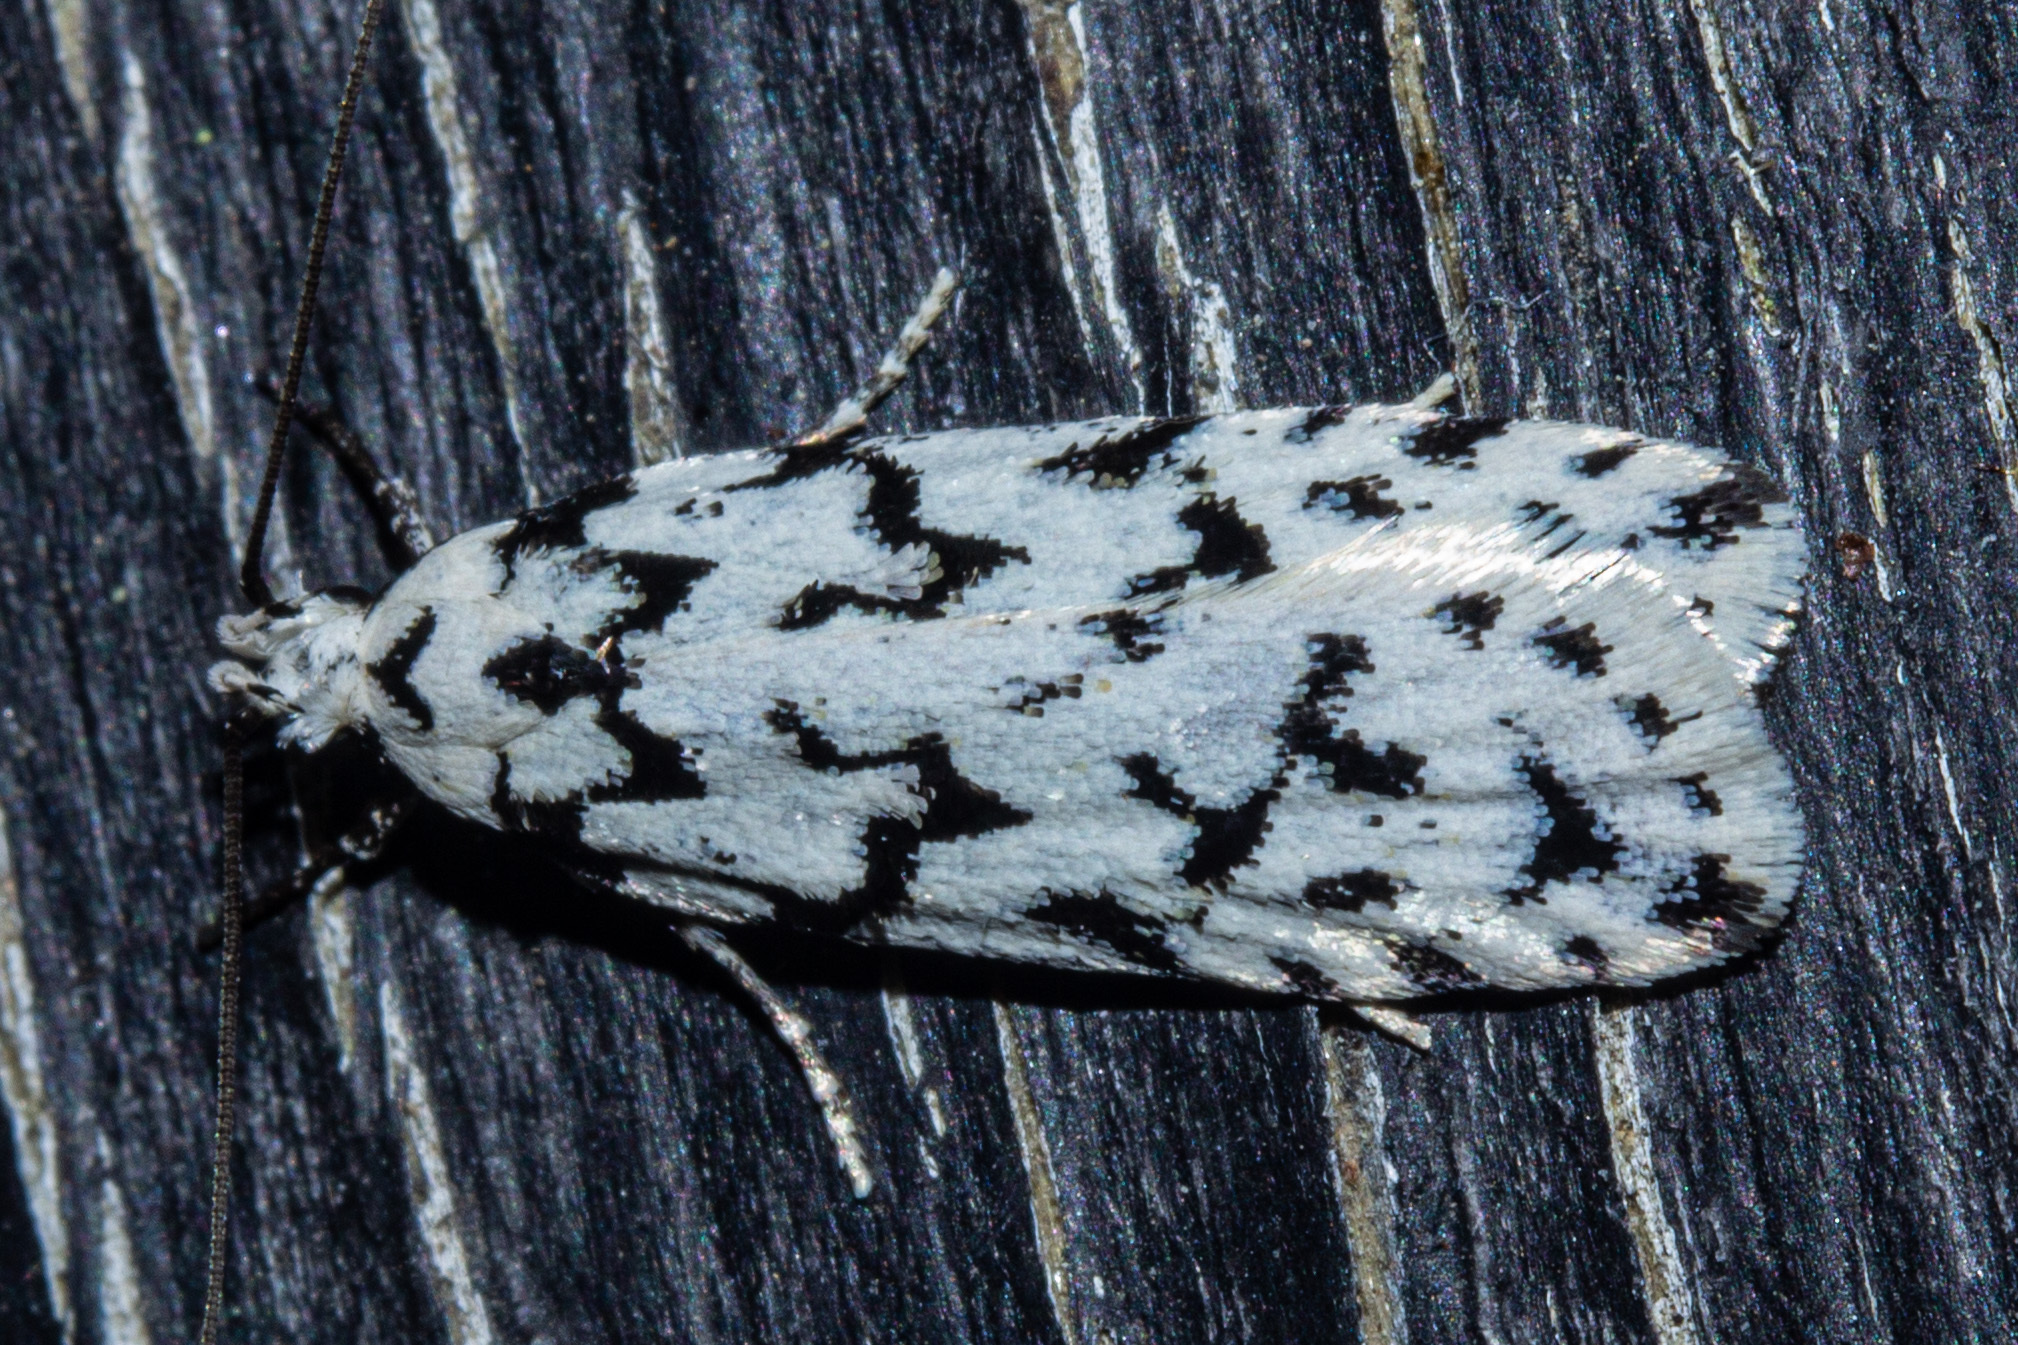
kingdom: Animalia
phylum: Arthropoda
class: Insecta
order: Lepidoptera
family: Oecophoridae
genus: Izatha
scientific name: Izatha katadiktya
